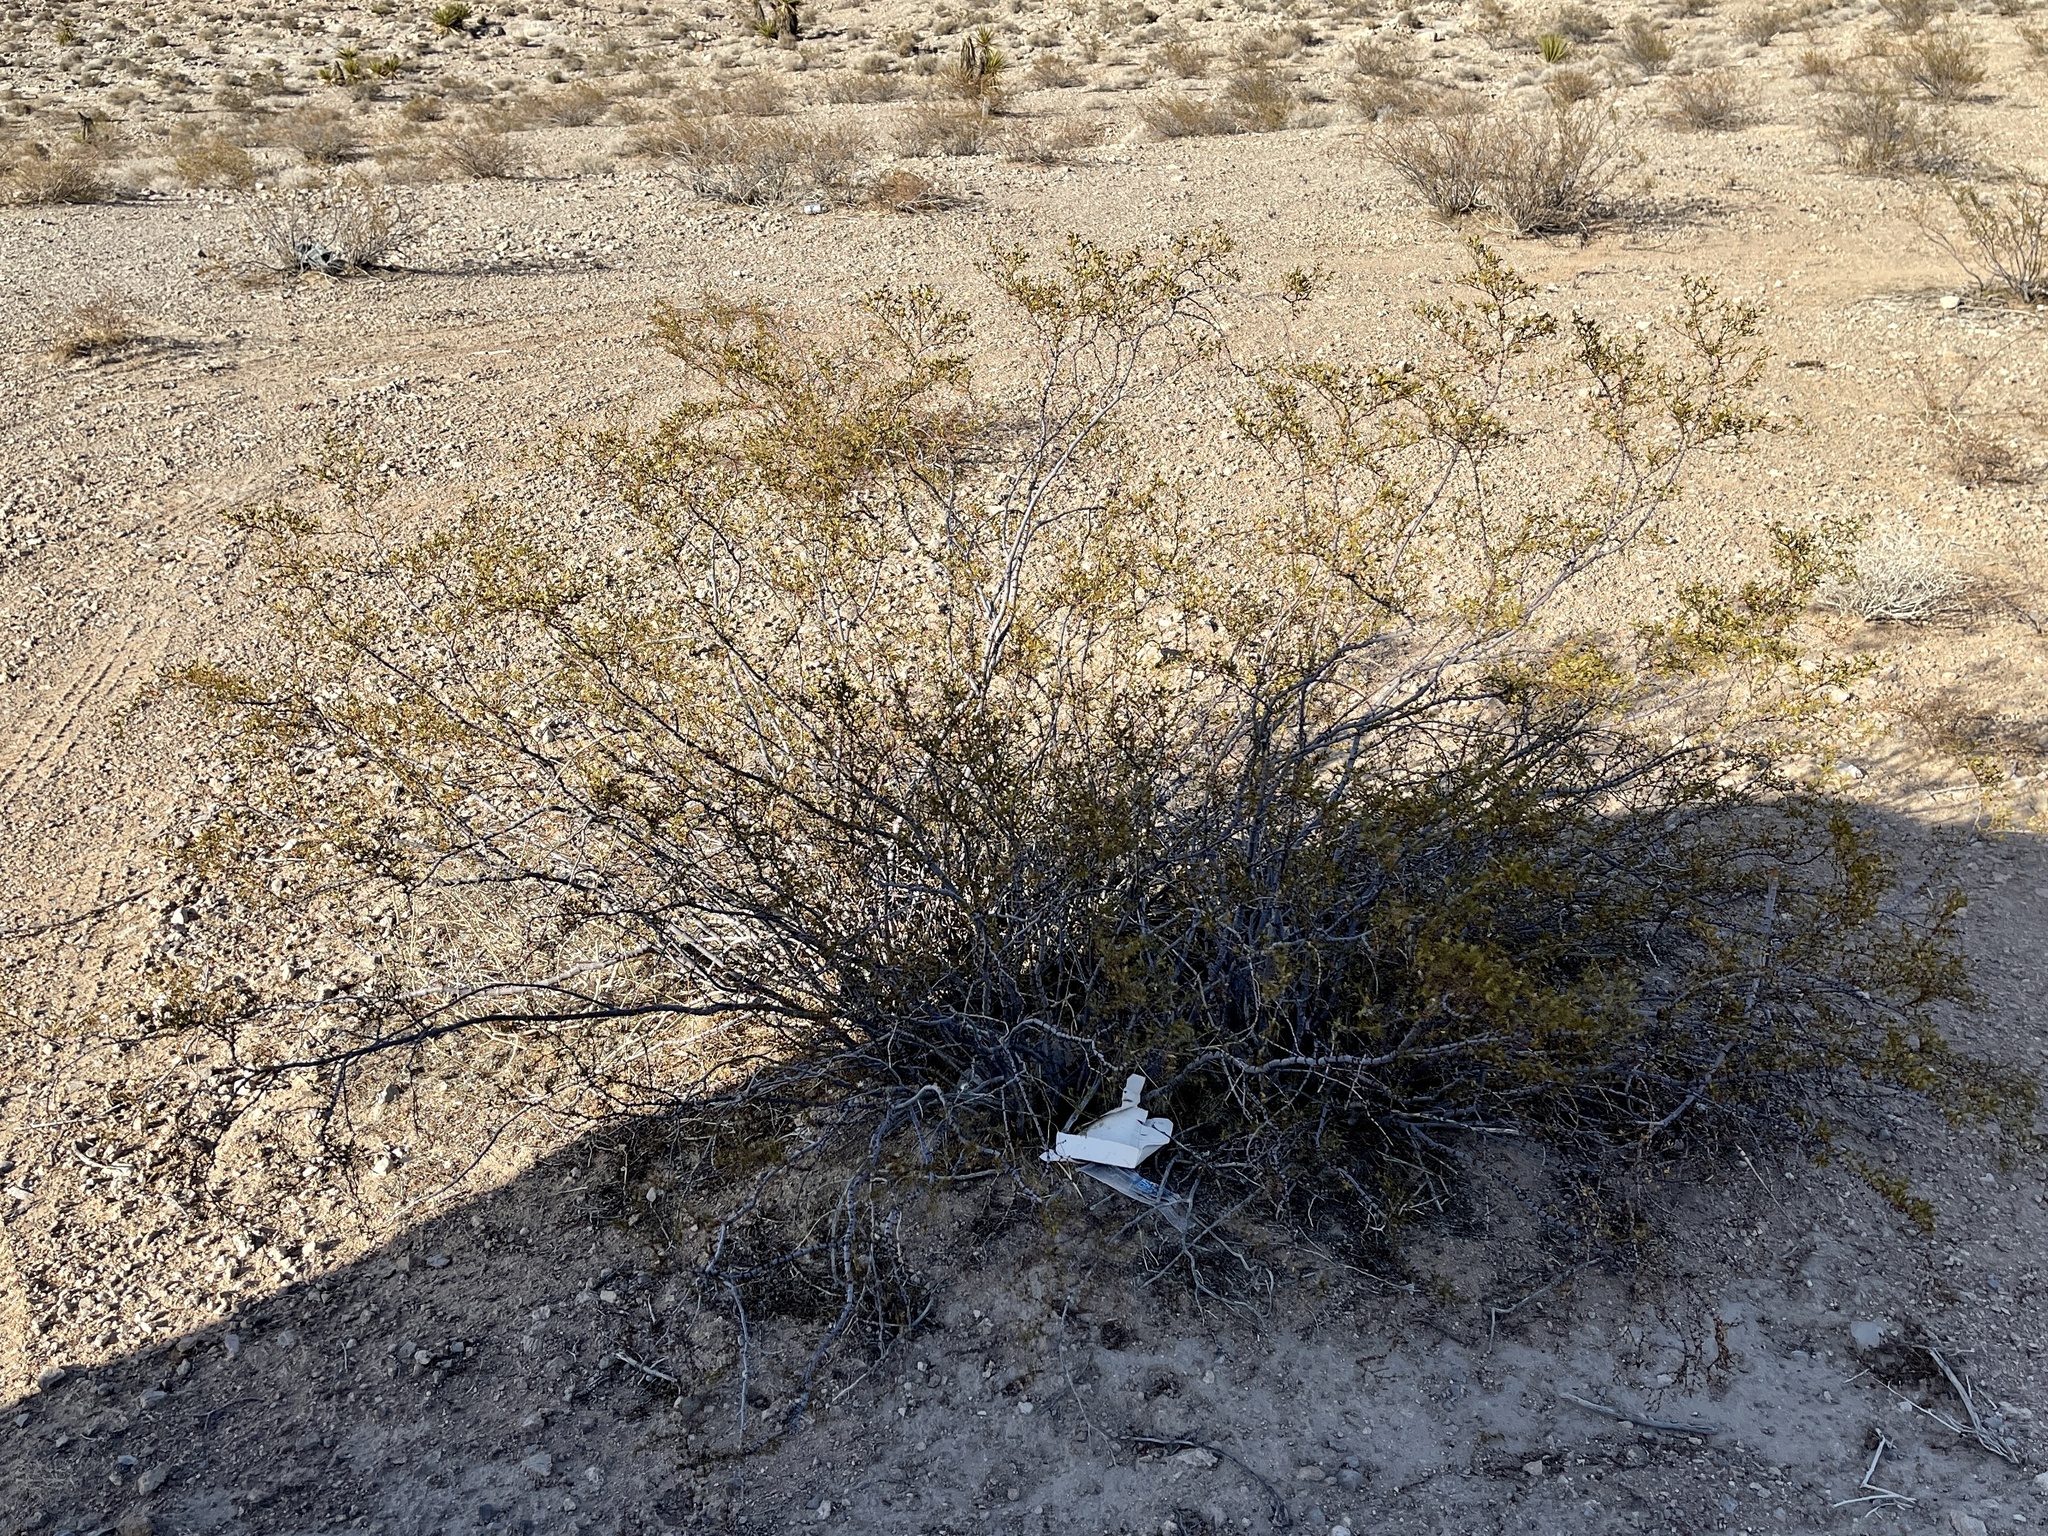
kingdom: Plantae
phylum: Tracheophyta
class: Magnoliopsida
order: Zygophyllales
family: Zygophyllaceae
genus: Larrea
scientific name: Larrea tridentata
